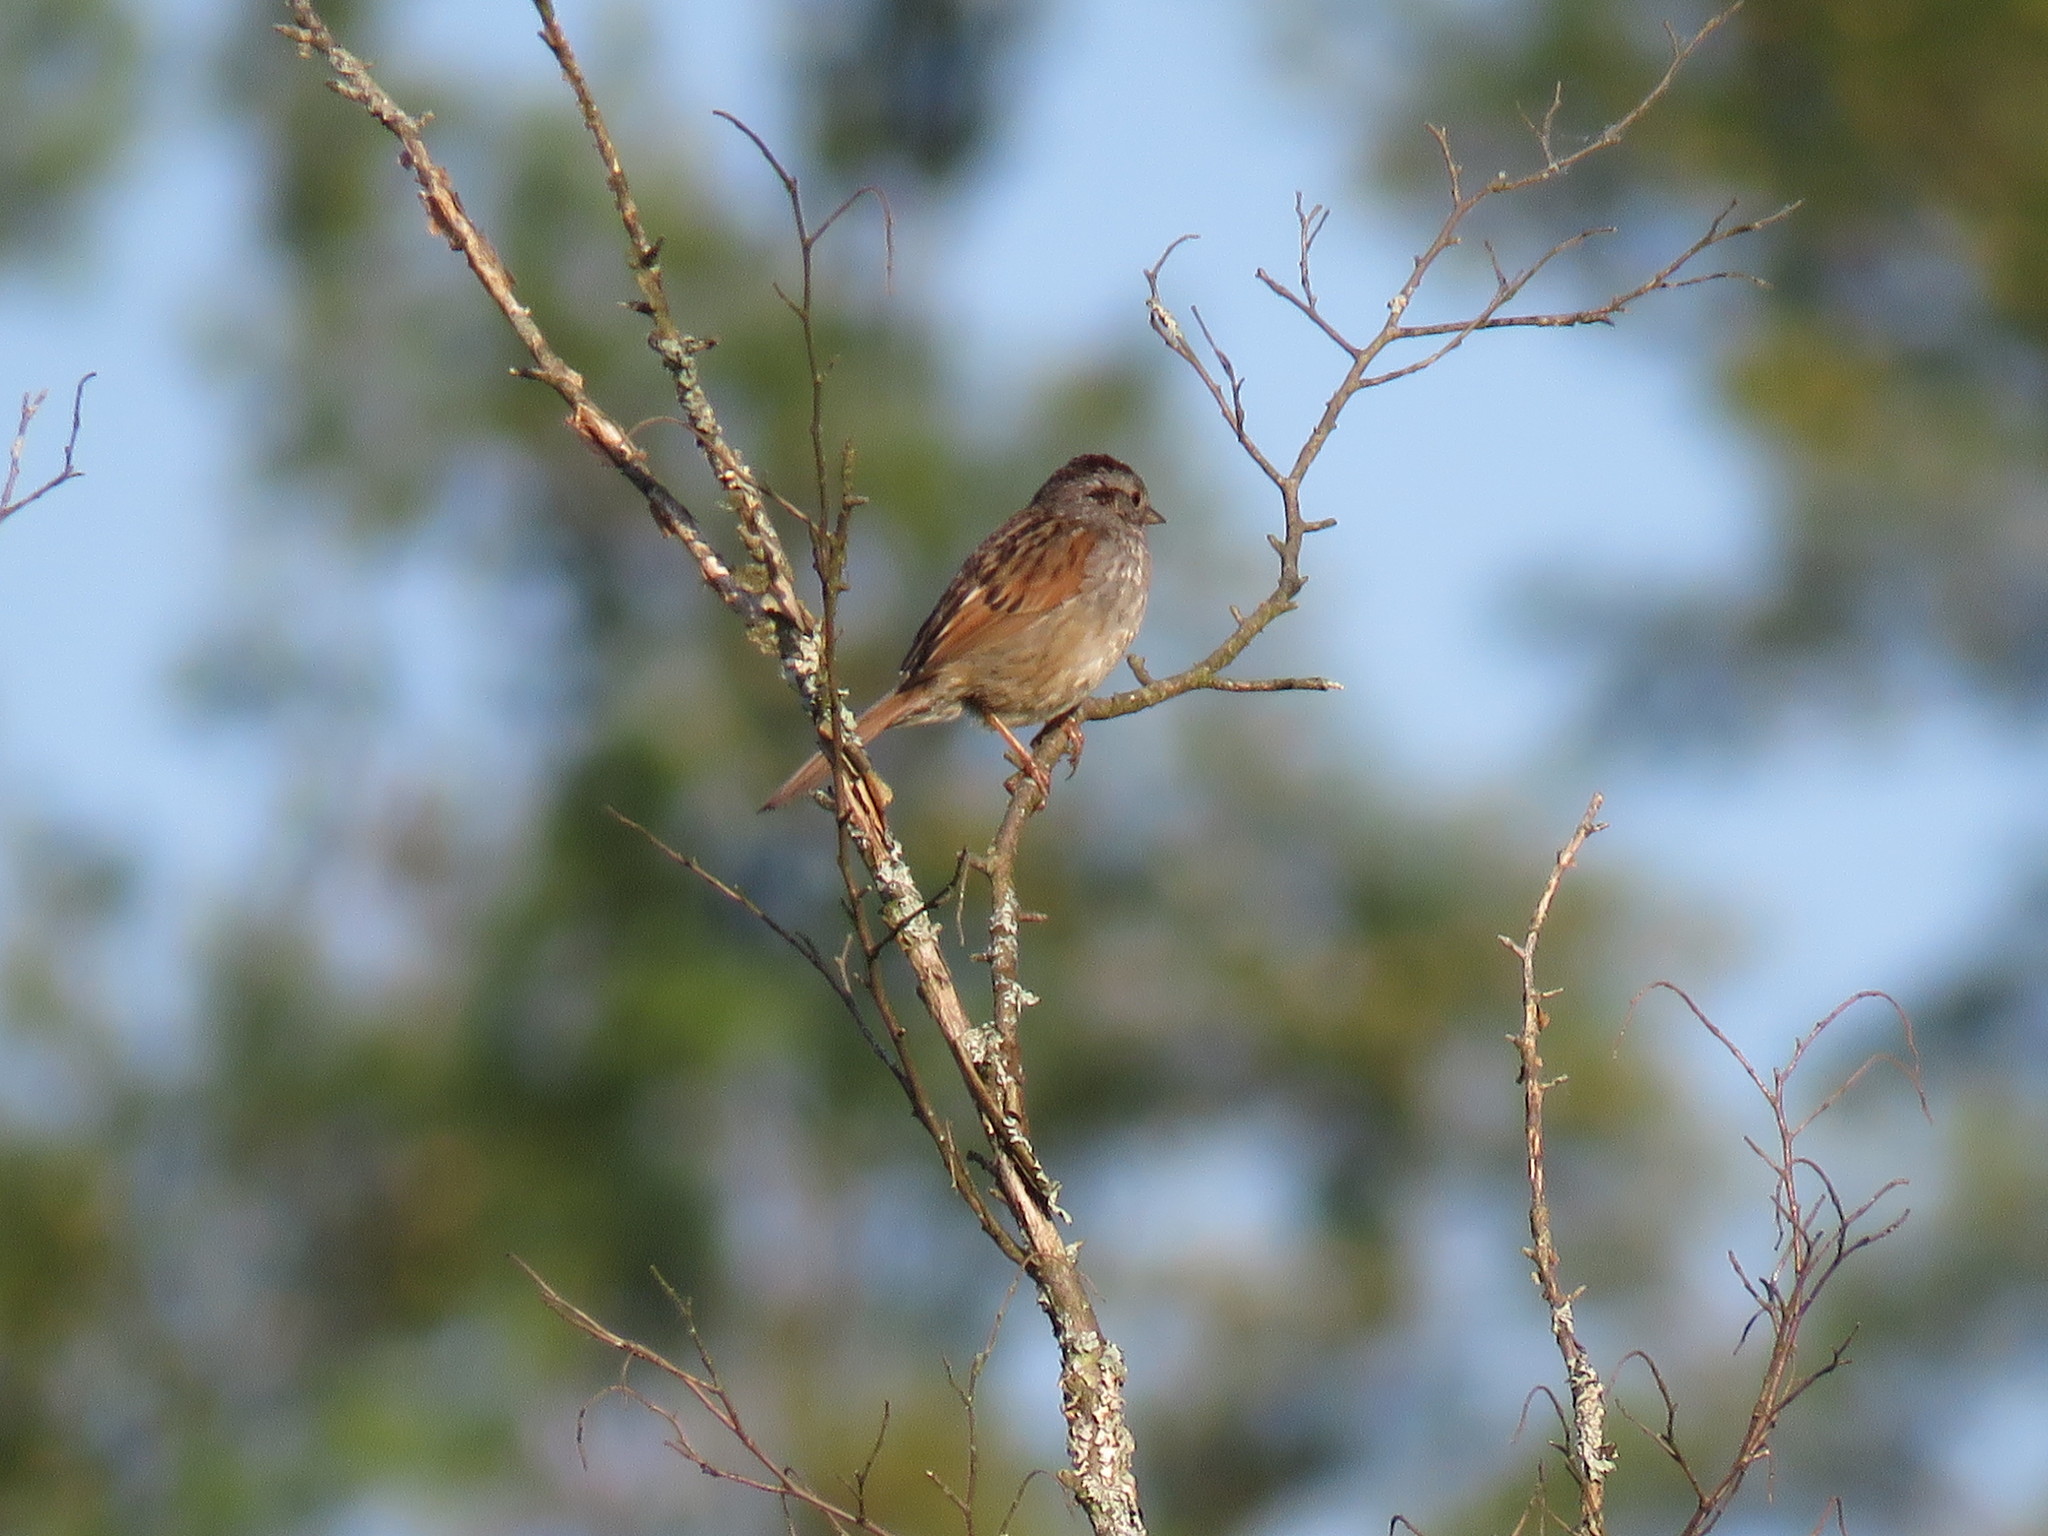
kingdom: Animalia
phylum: Chordata
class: Aves
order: Passeriformes
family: Passerellidae
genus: Melospiza
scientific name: Melospiza georgiana
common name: Swamp sparrow
